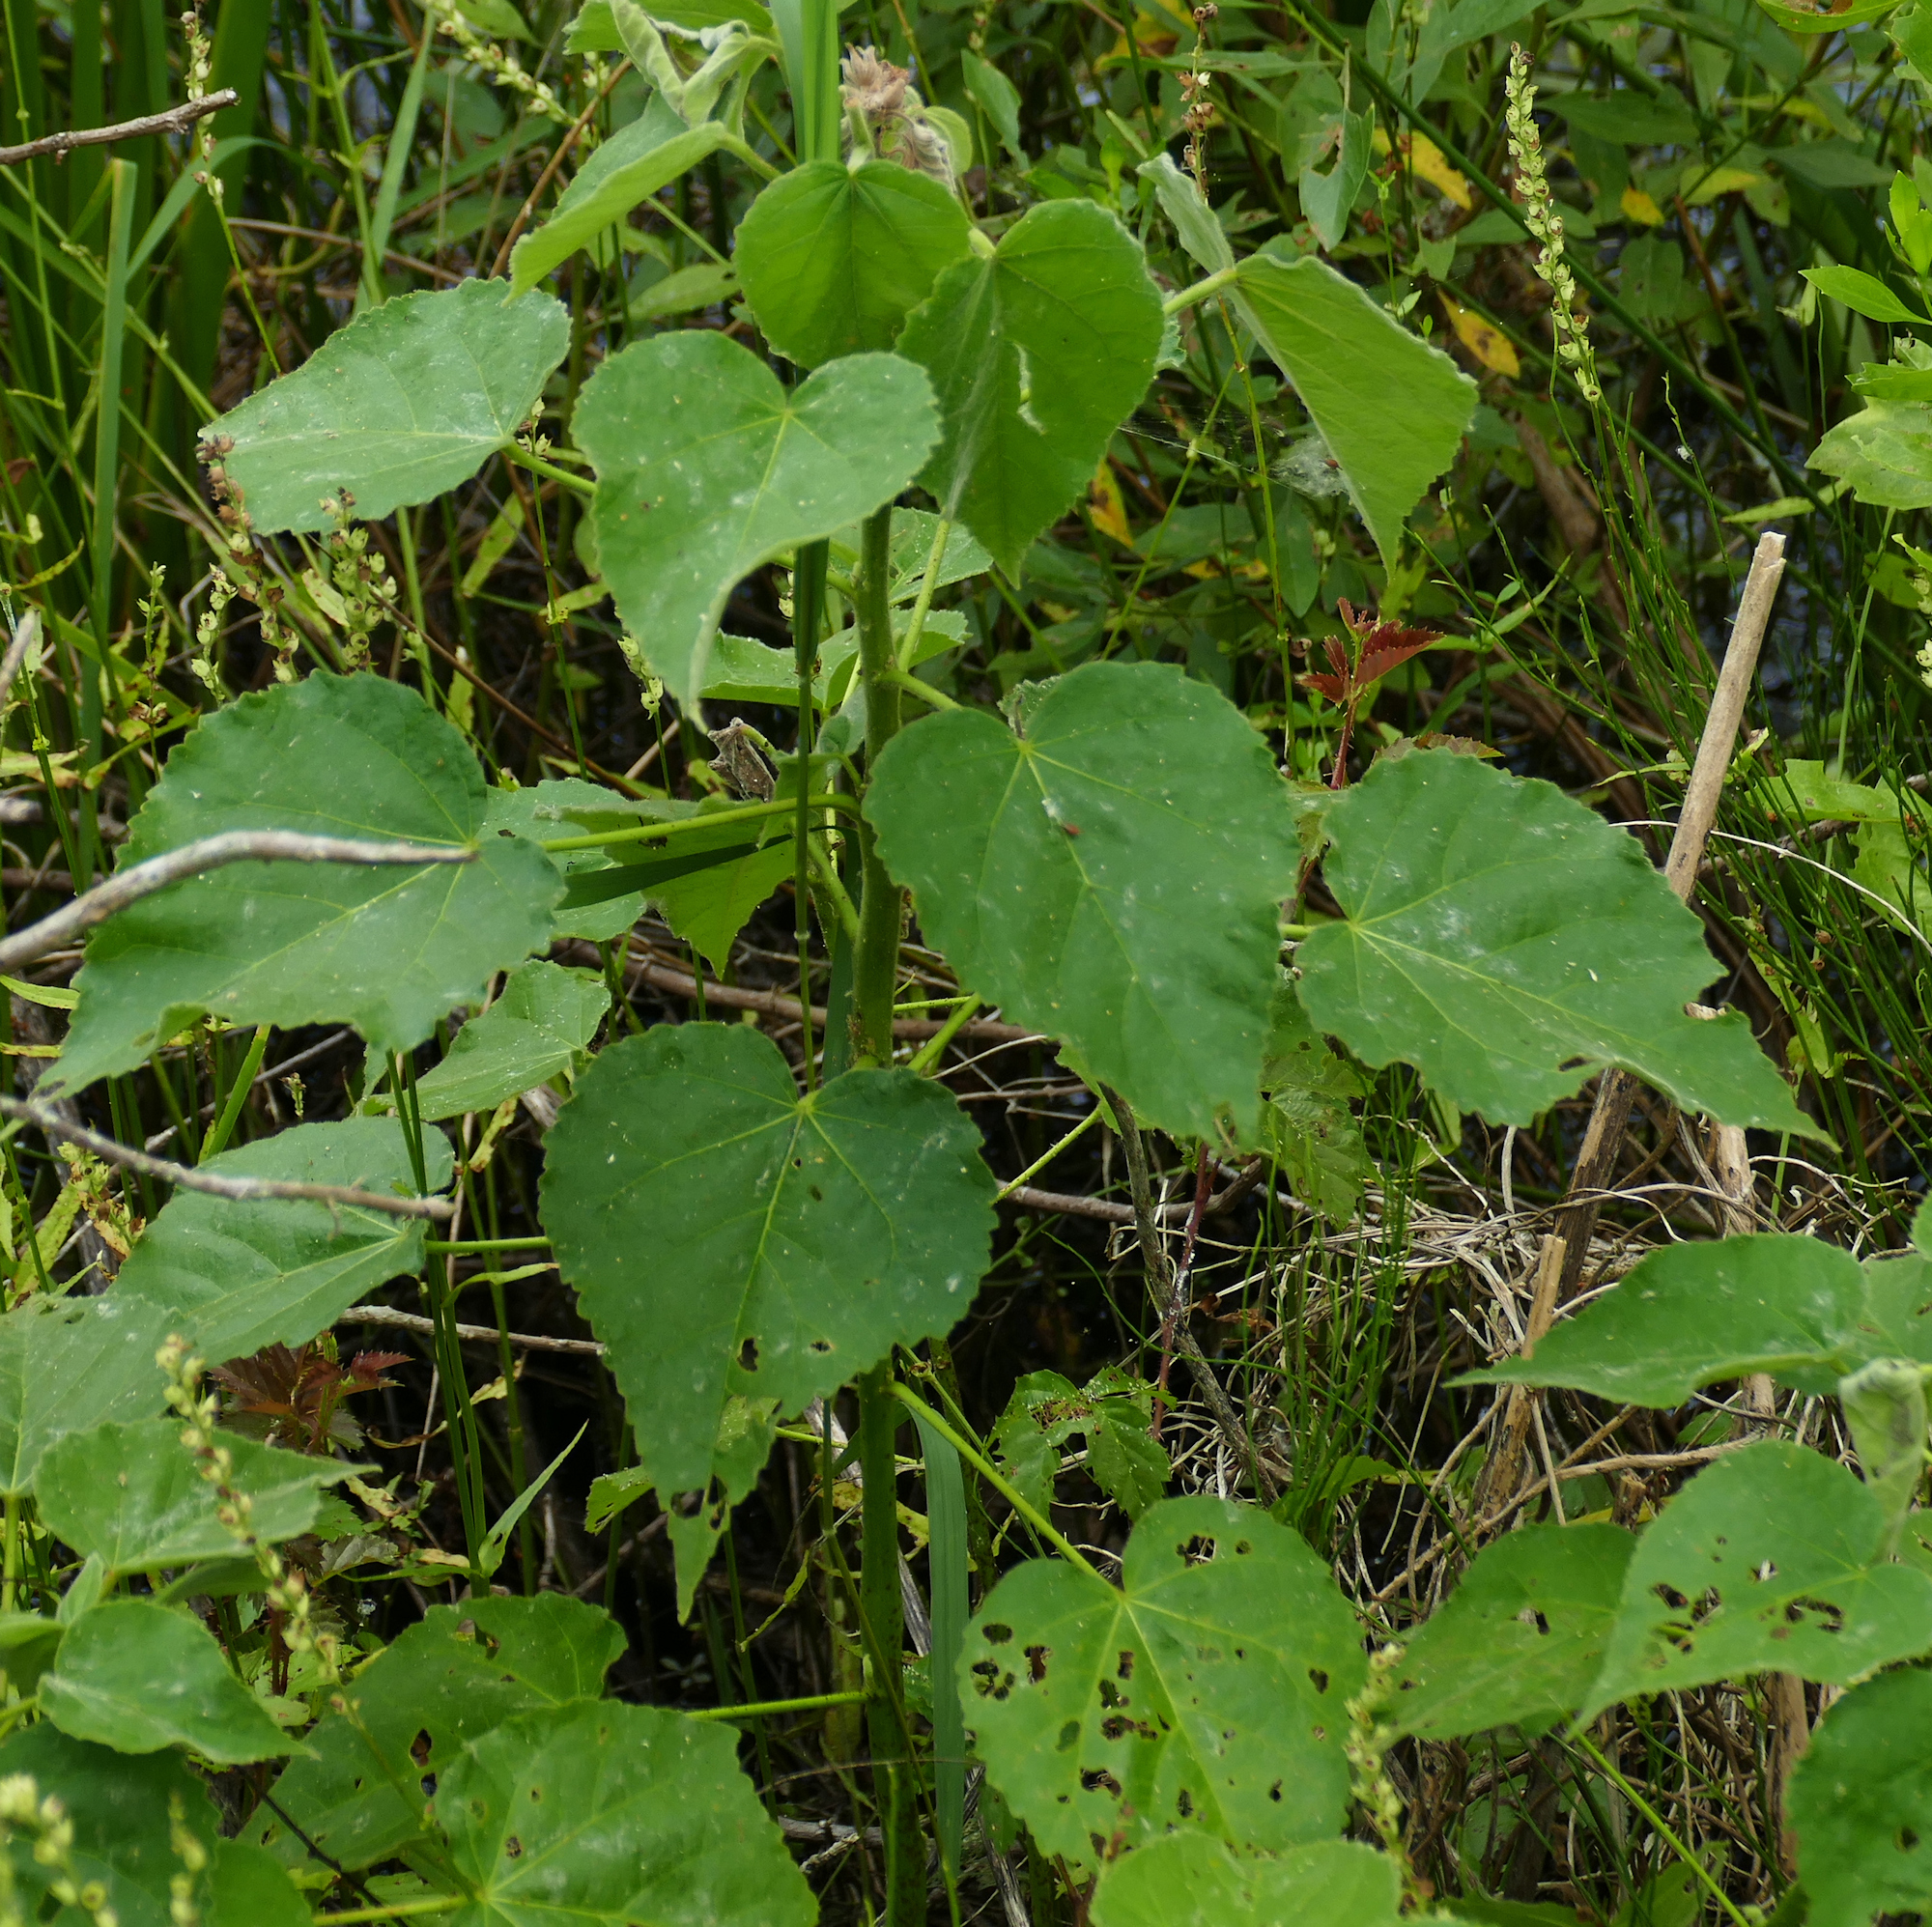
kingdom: Plantae
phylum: Tracheophyta
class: Magnoliopsida
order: Malvales
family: Malvaceae
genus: Hibiscus
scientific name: Hibiscus moscheutos
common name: Common rose-mallow
